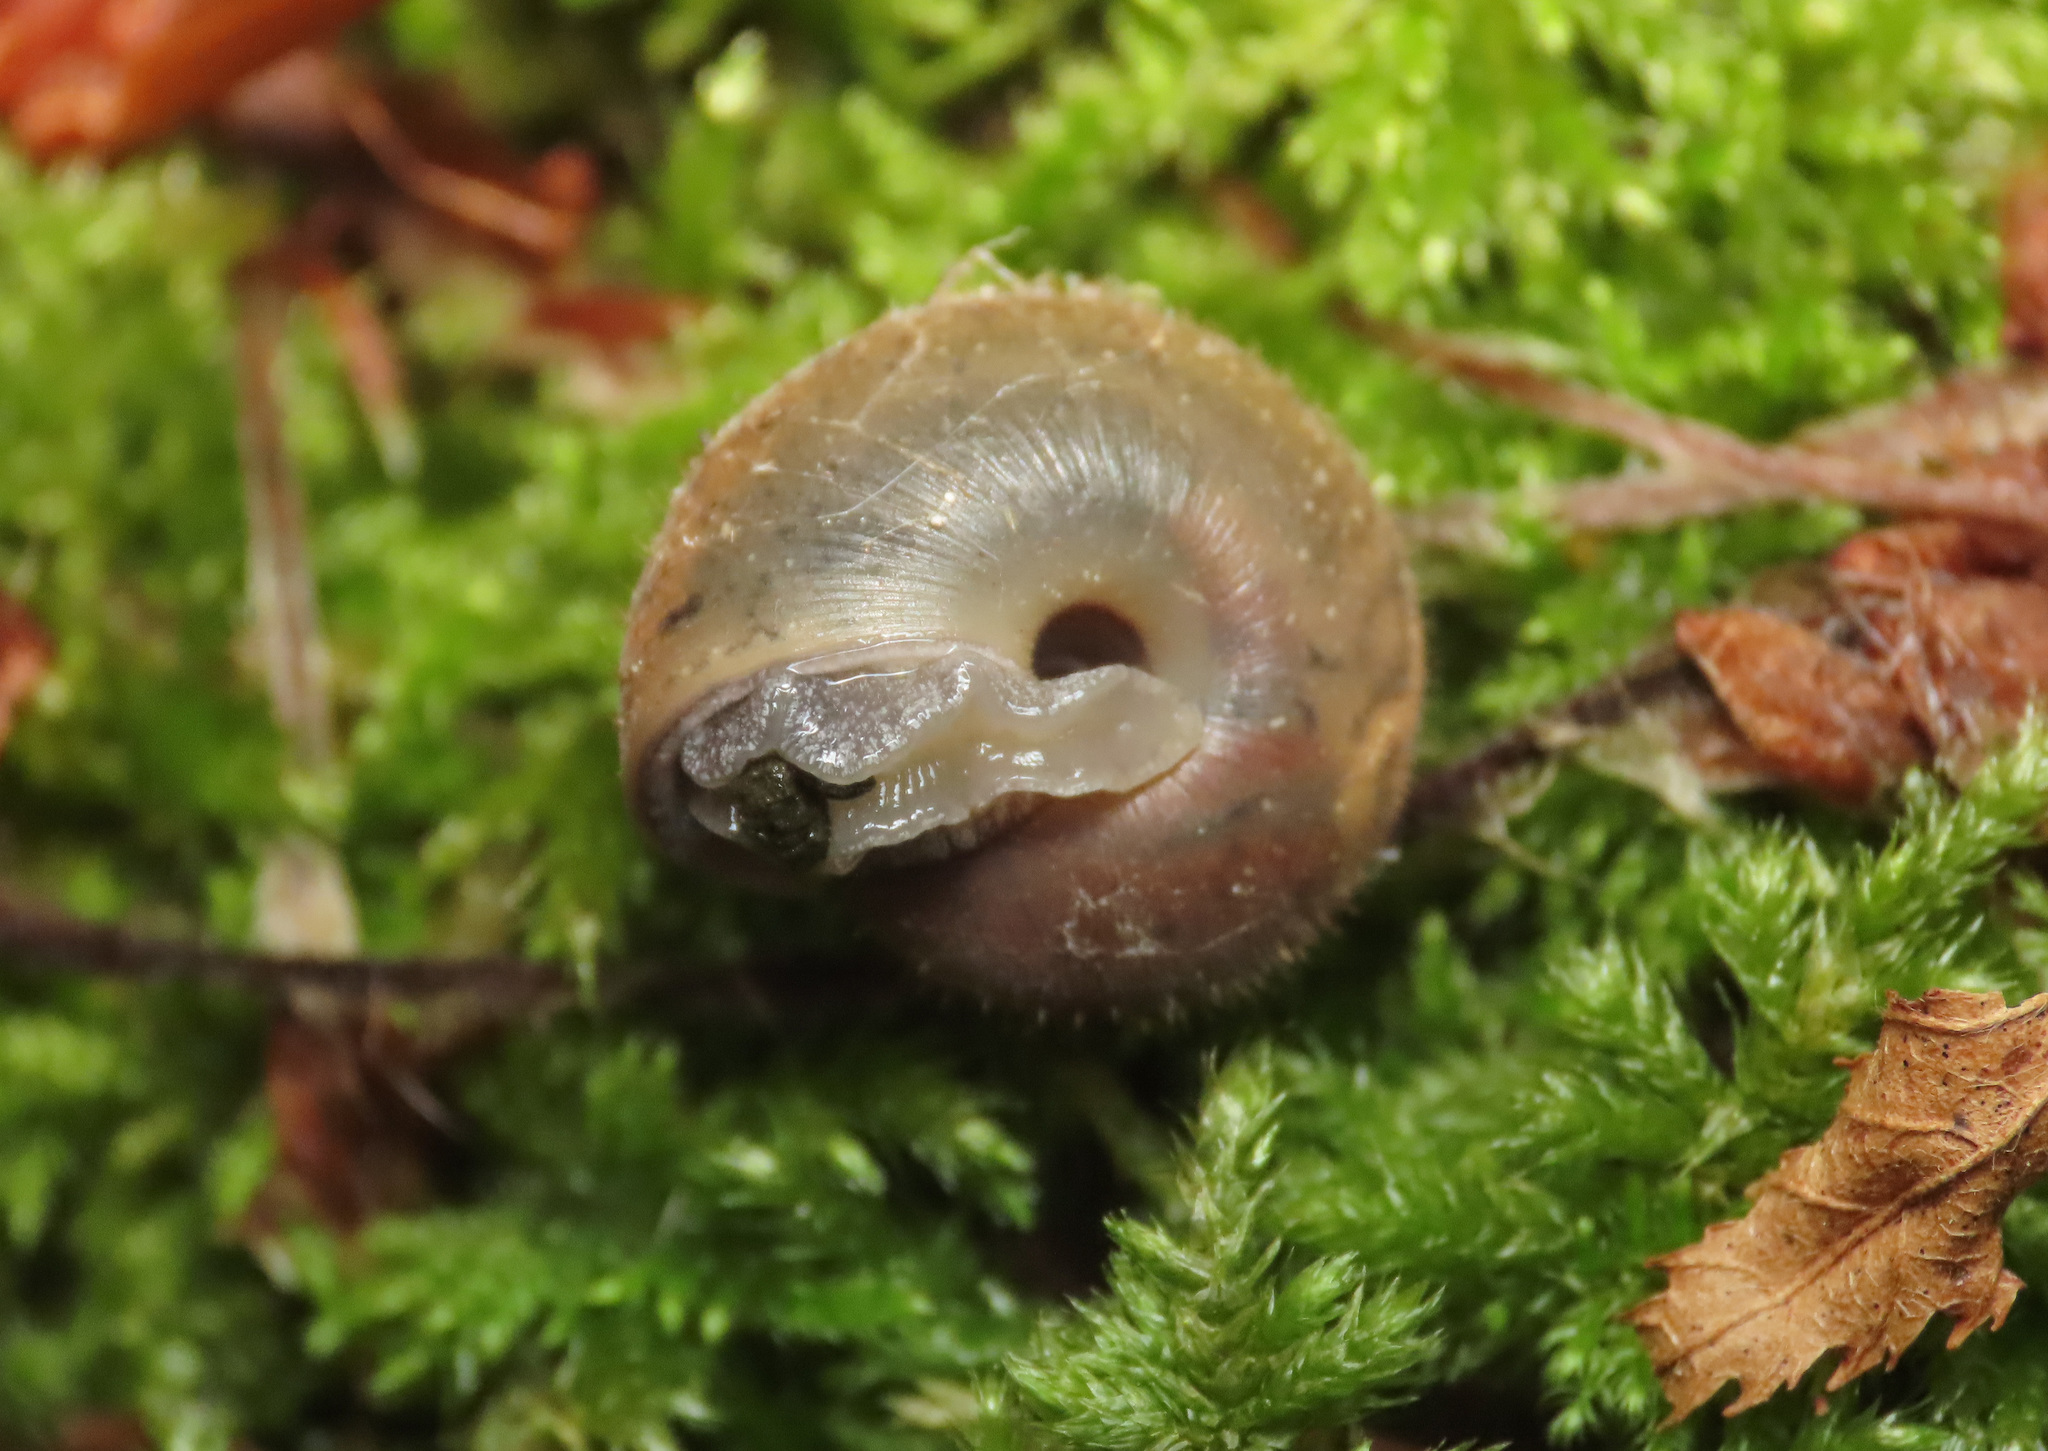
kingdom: Animalia
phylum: Mollusca
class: Gastropoda
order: Stylommatophora
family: Helicidae
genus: Campylaea
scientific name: Campylaea planospira
